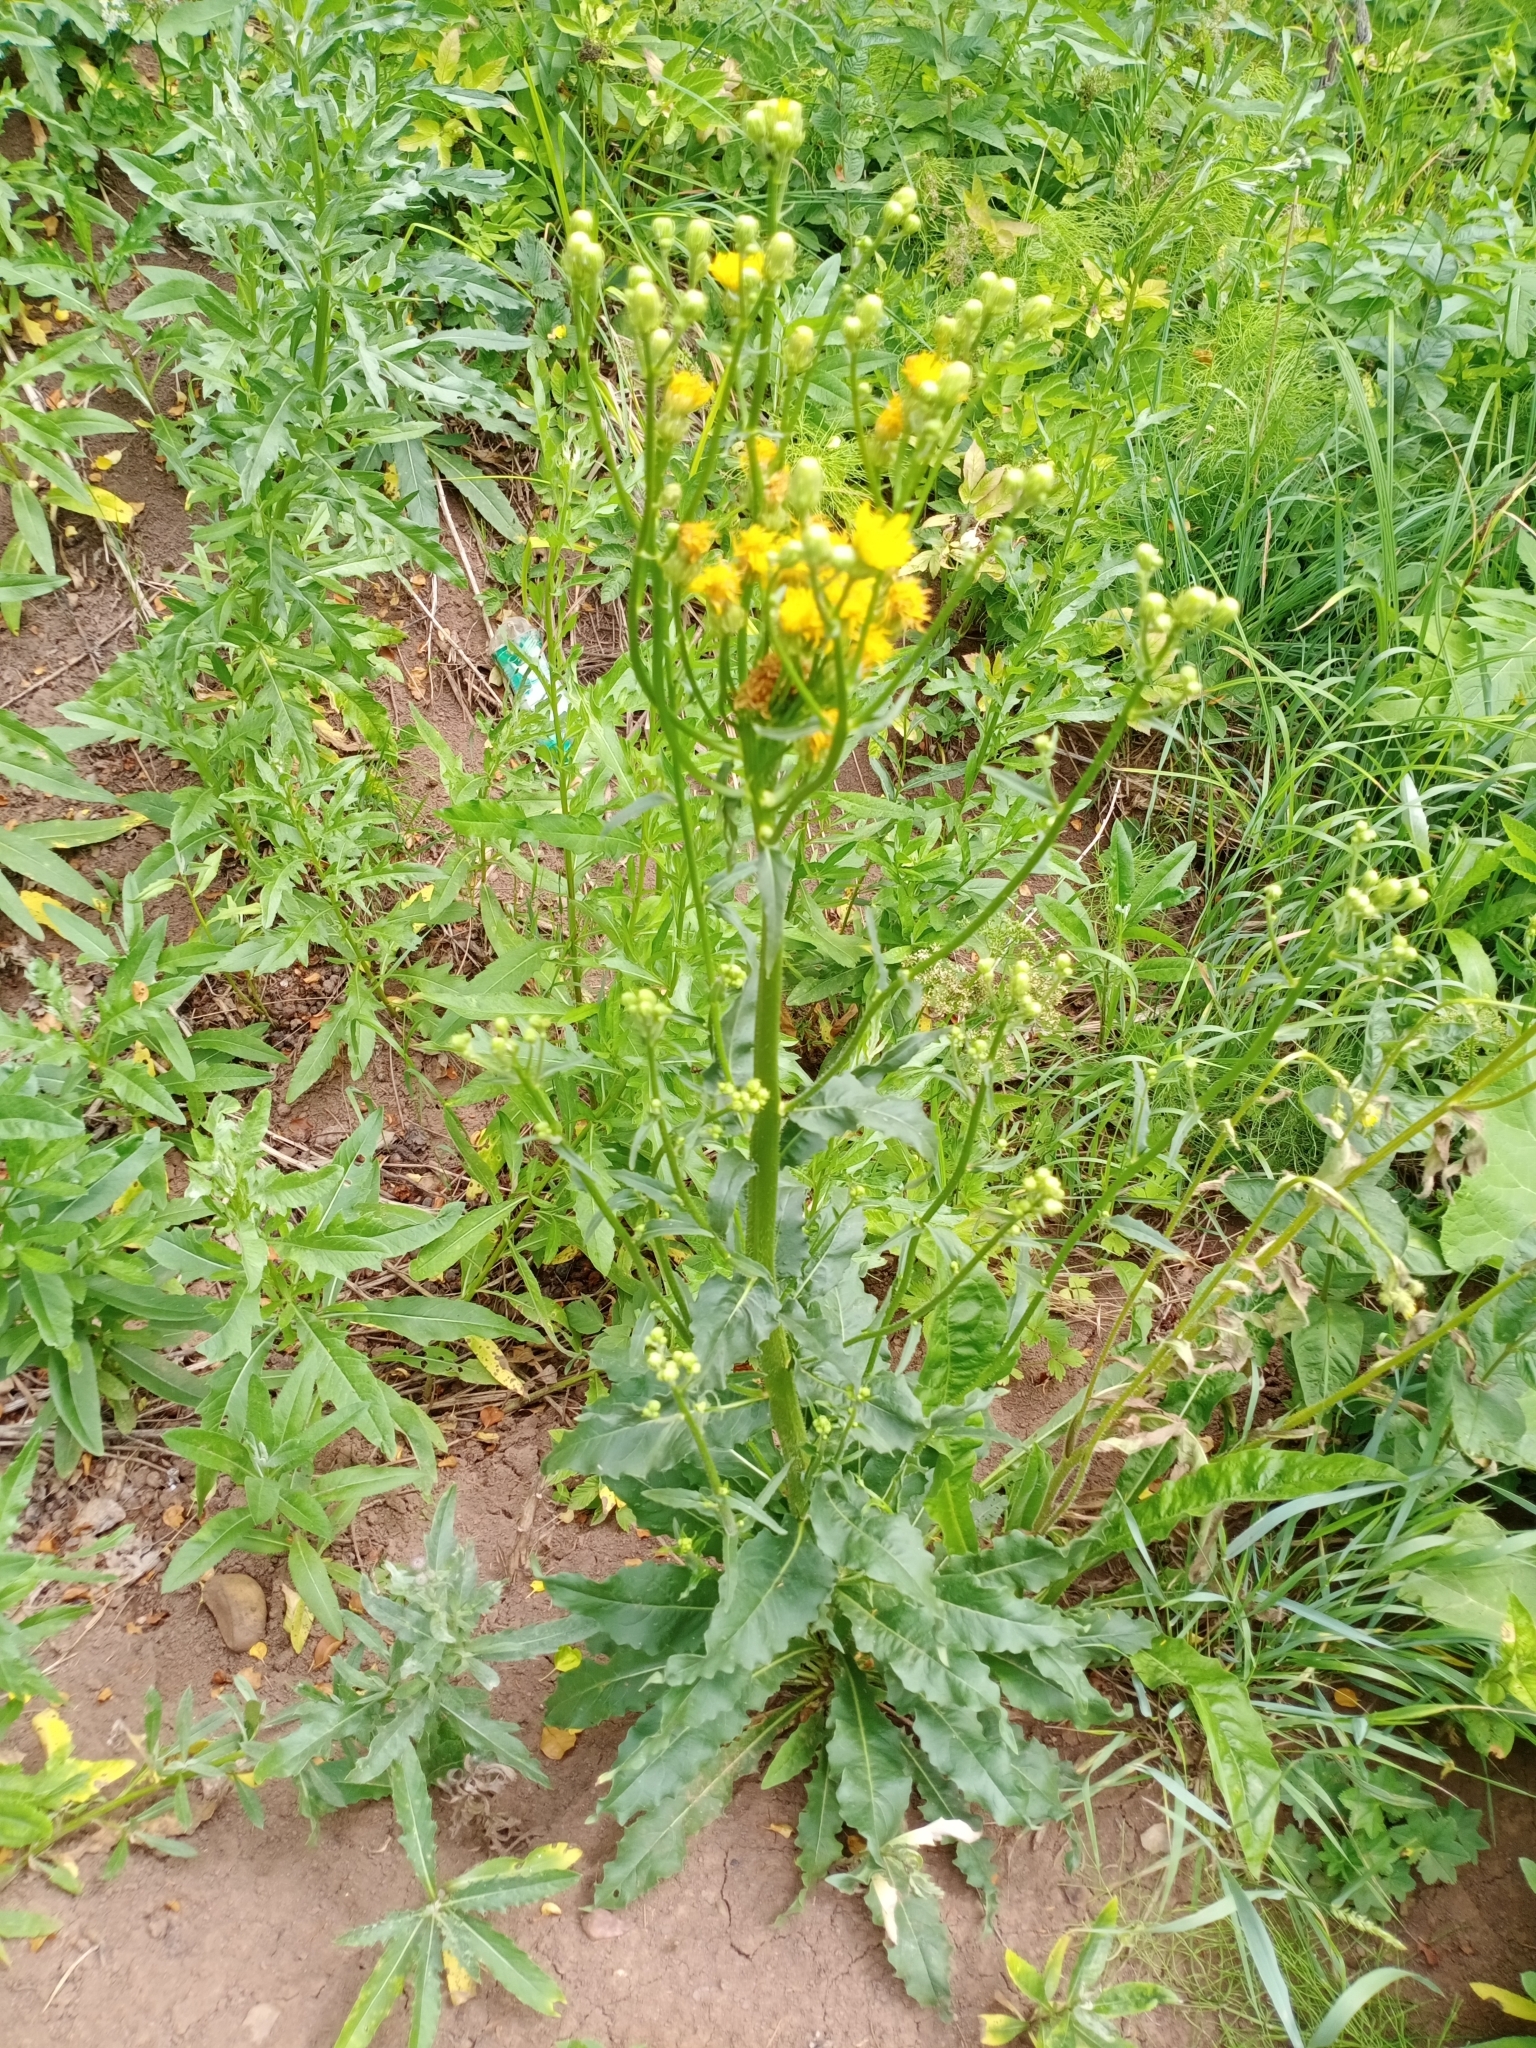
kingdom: Plantae
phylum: Tracheophyta
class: Magnoliopsida
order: Asterales
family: Asteraceae
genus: Picris
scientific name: Picris hieracioides
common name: Hawkweed oxtongue
